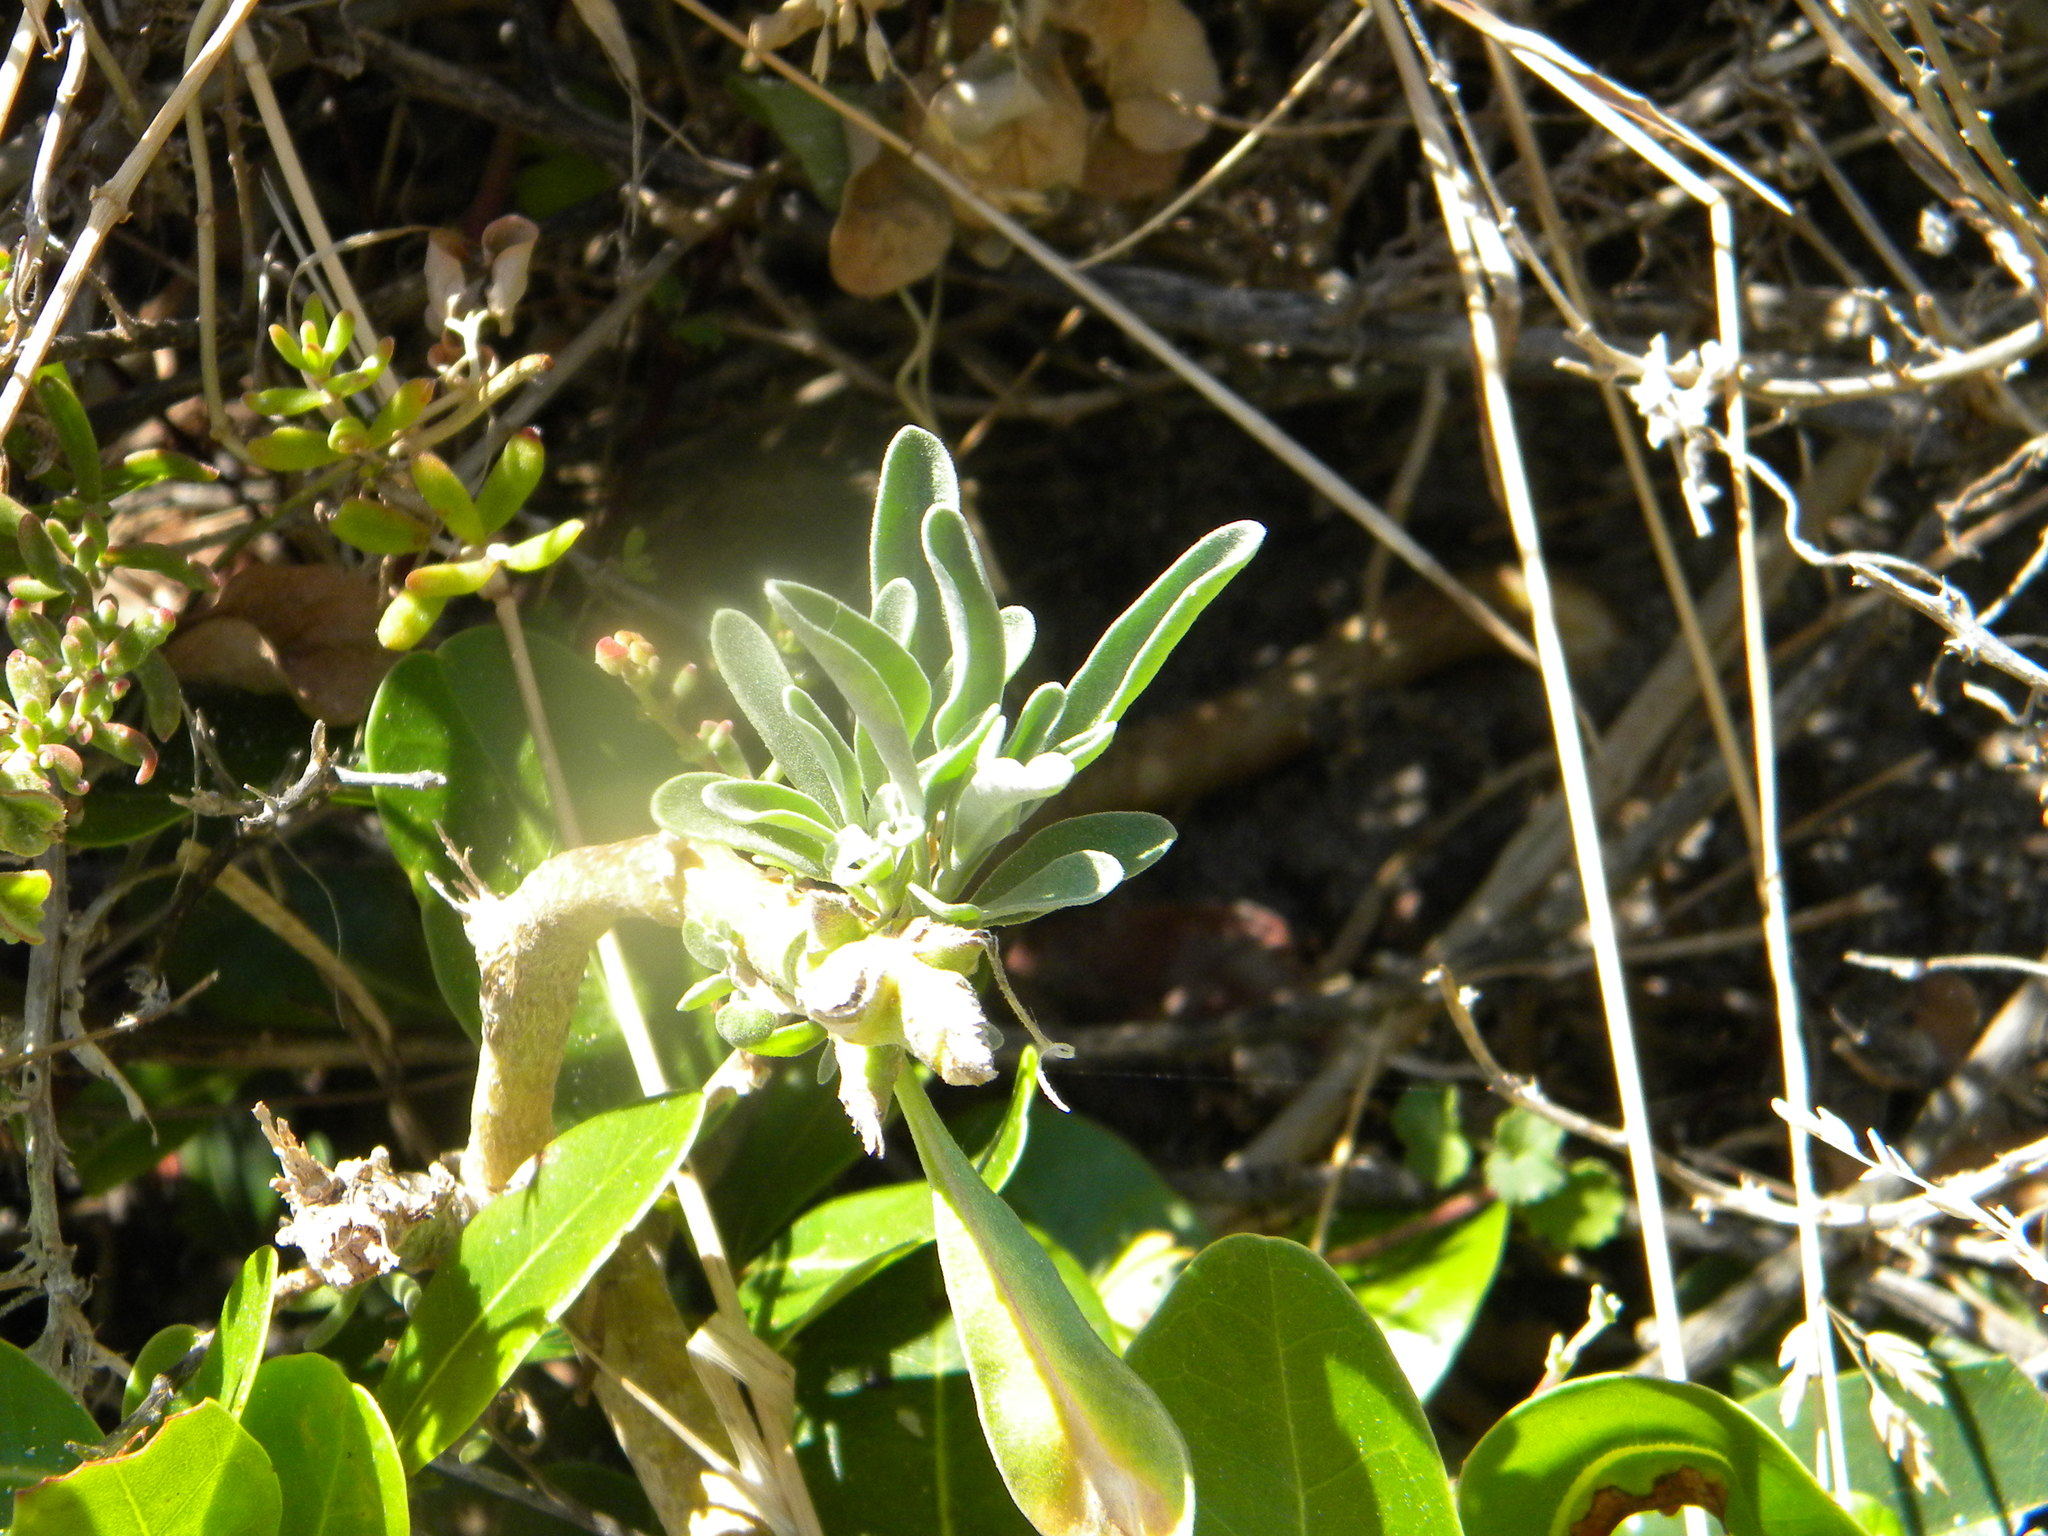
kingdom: Plantae
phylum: Tracheophyta
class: Magnoliopsida
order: Brassicales
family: Brassicaceae
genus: Matthiola
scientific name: Matthiola incana
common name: Hoary stock
